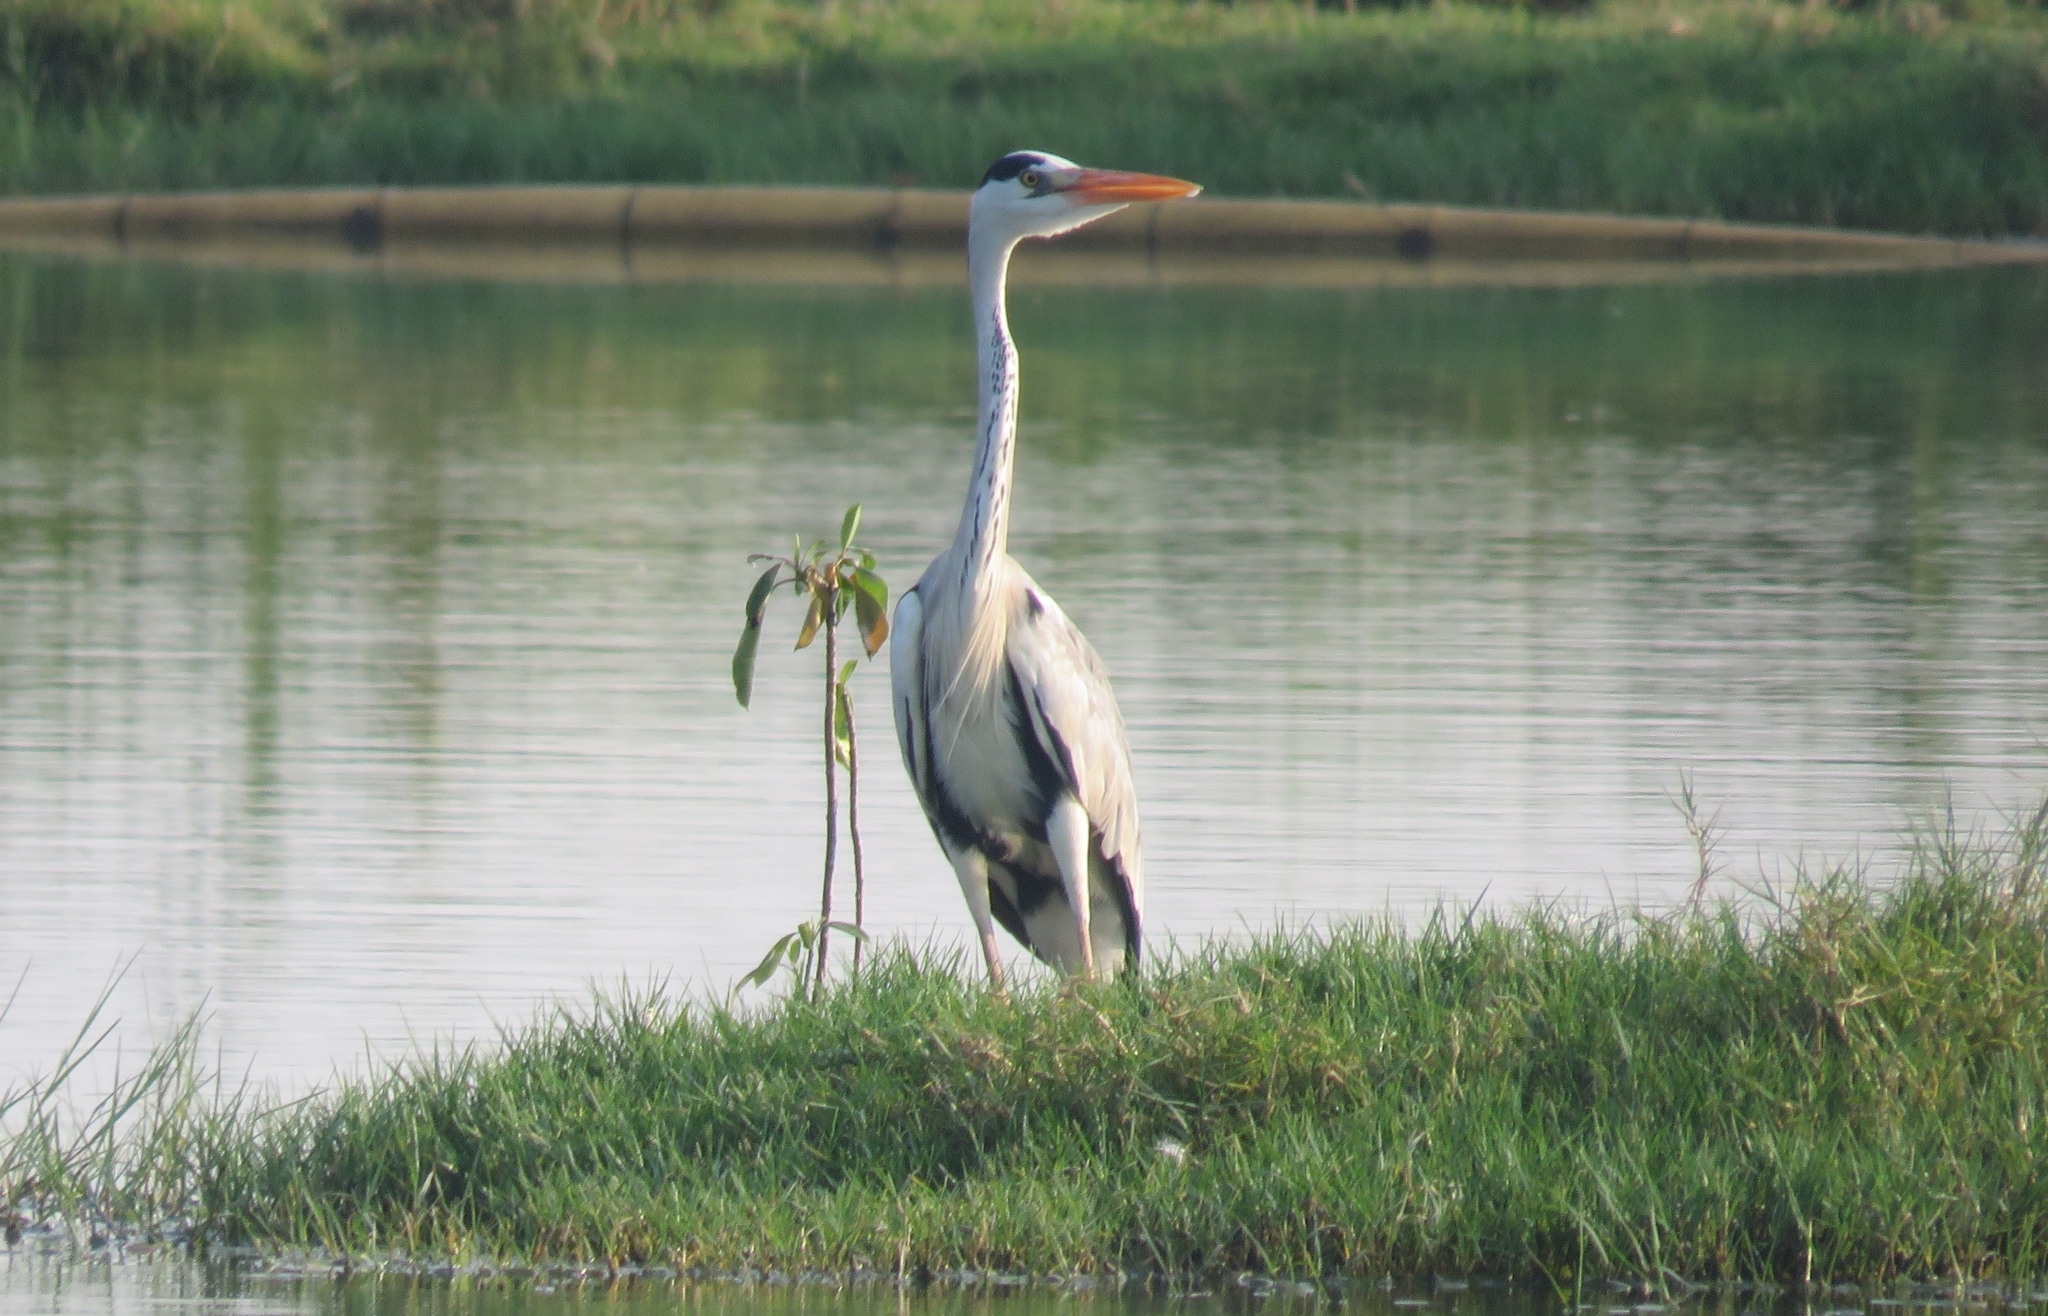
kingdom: Animalia
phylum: Chordata
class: Aves
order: Pelecaniformes
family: Ardeidae
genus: Ardea
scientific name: Ardea cinerea
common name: Grey heron
